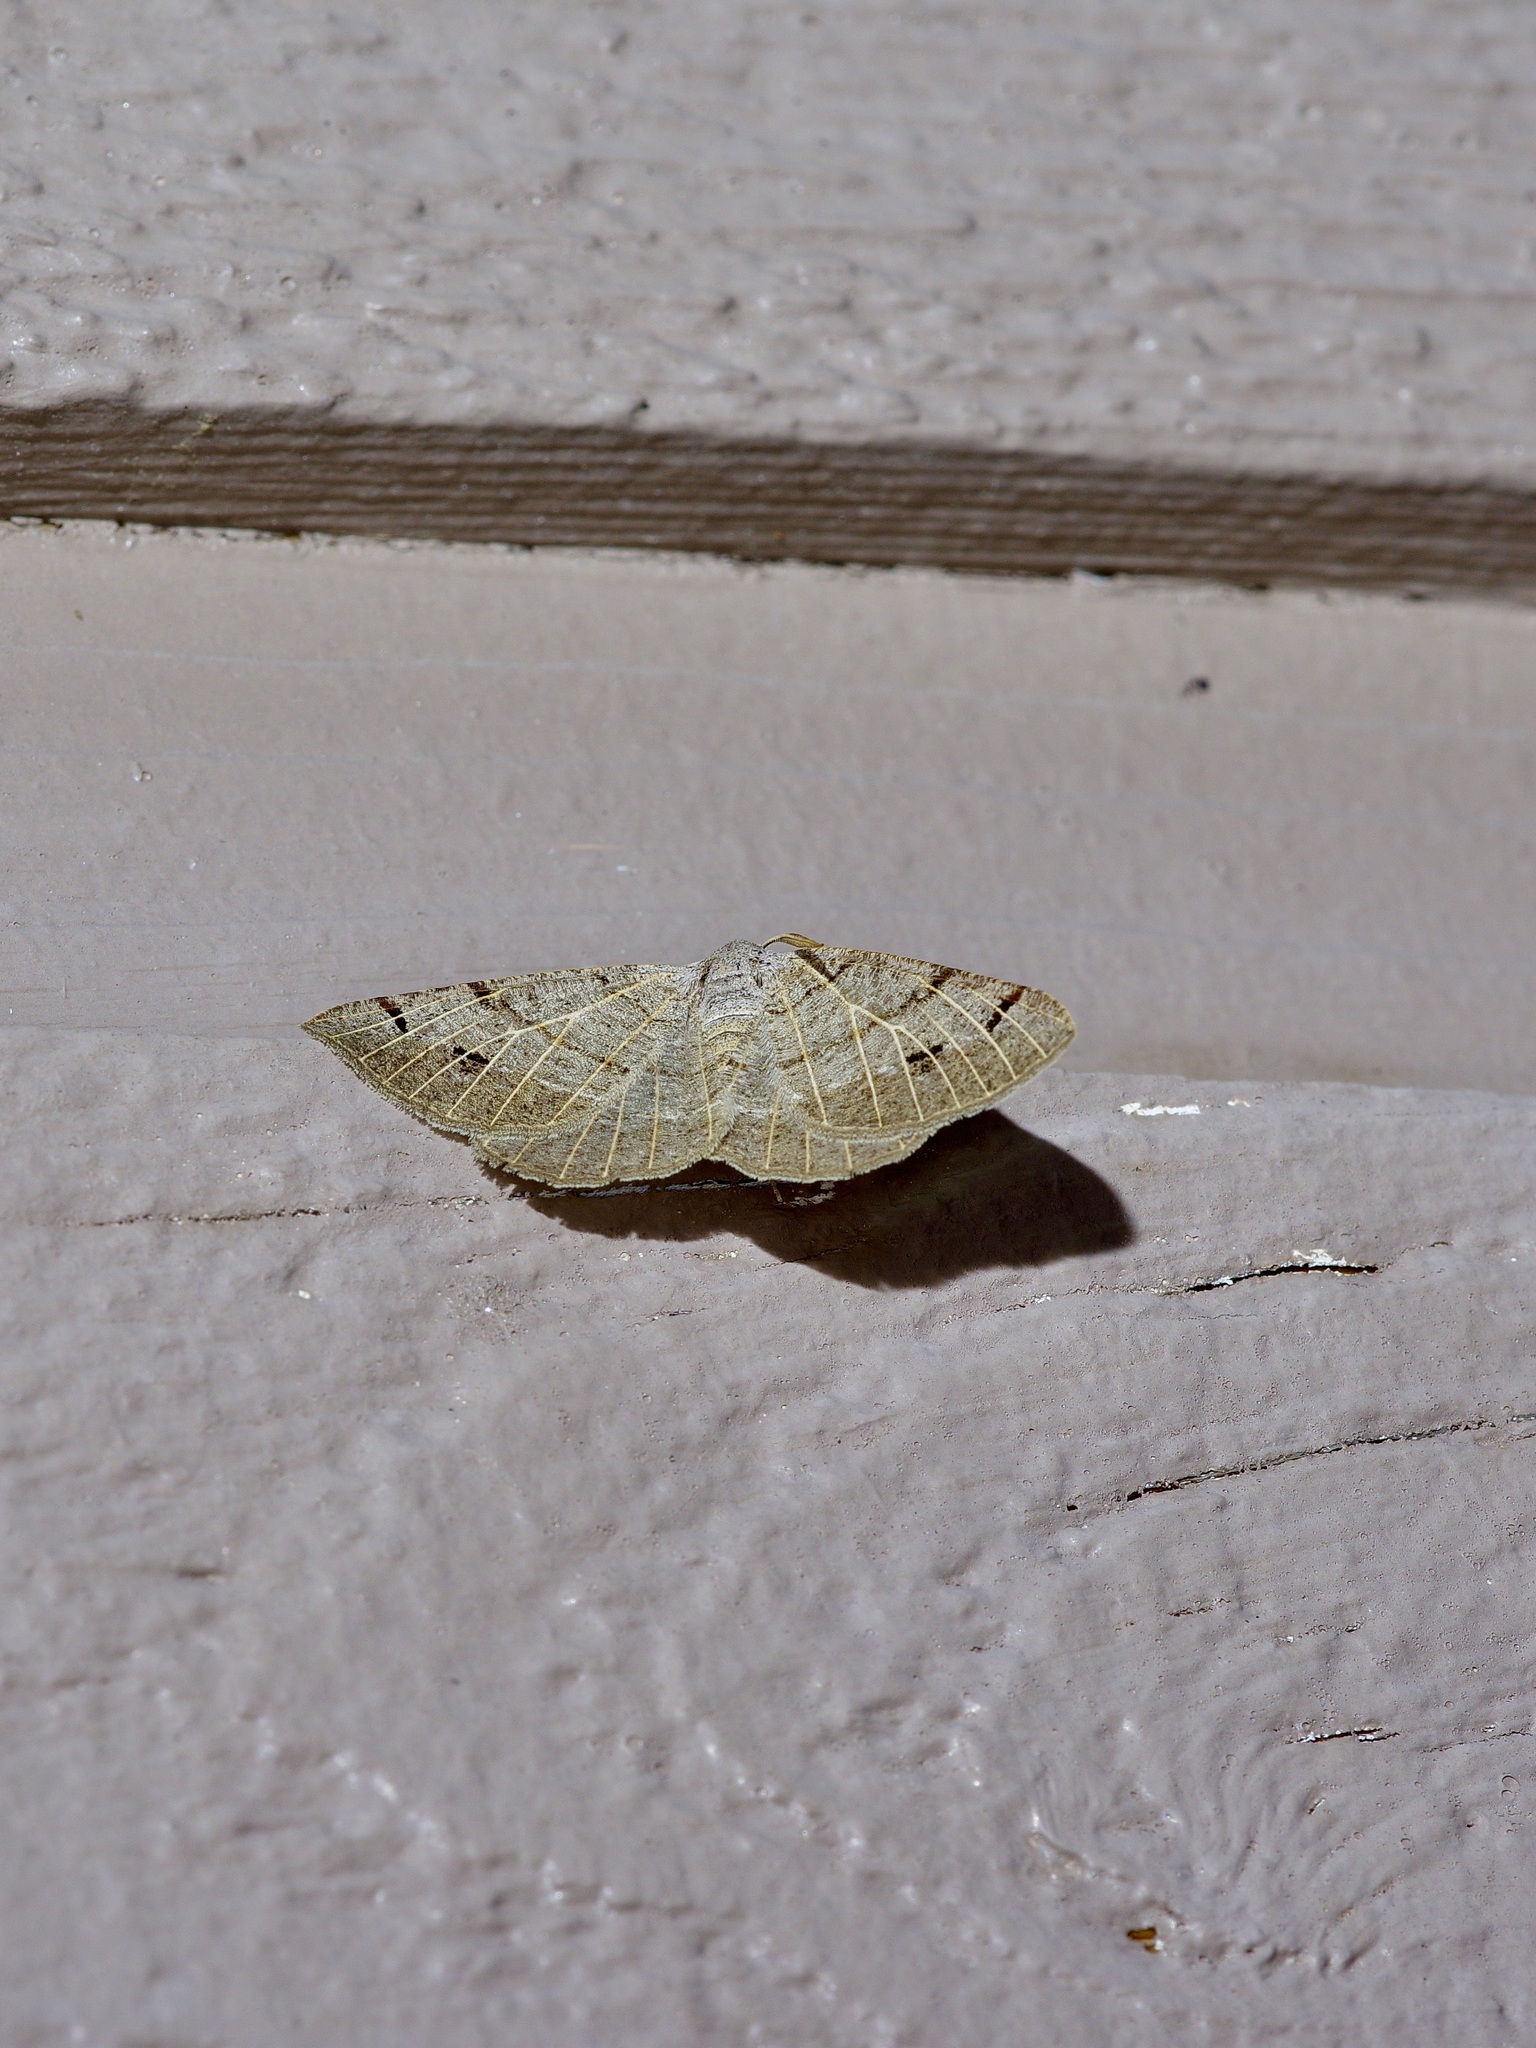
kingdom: Animalia
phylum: Arthropoda
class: Insecta
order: Lepidoptera
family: Geometridae
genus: Isturgia
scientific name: Isturgia dislocaria
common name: Pale-viened enconista
